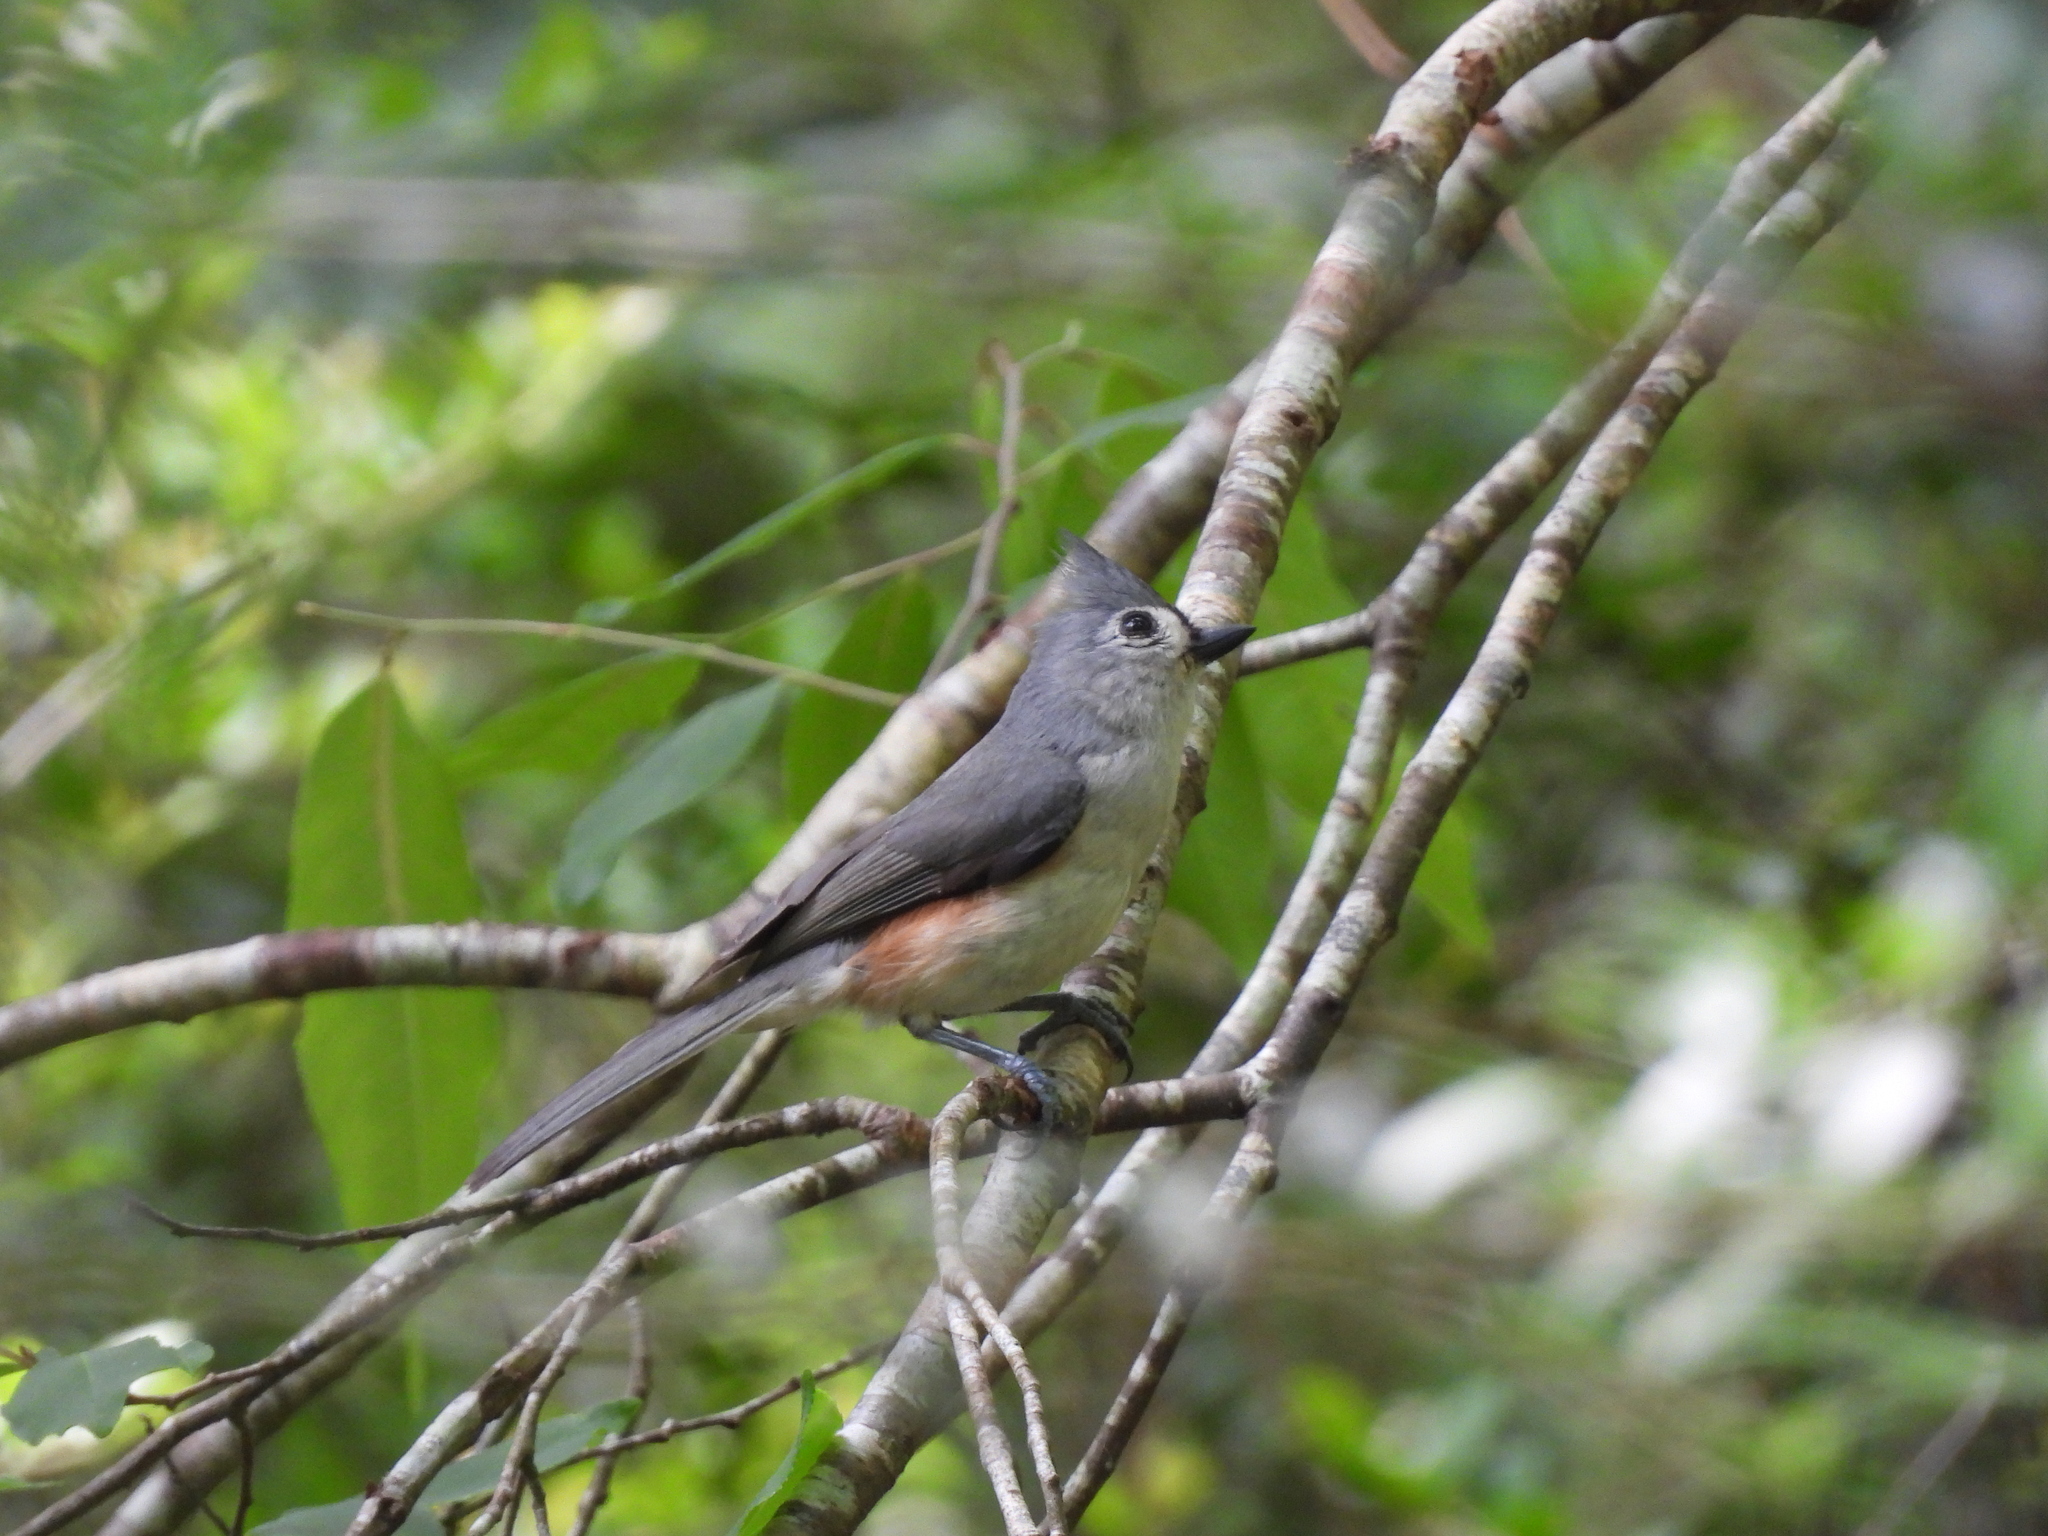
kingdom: Animalia
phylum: Chordata
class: Aves
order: Passeriformes
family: Paridae
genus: Baeolophus
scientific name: Baeolophus bicolor
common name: Tufted titmouse
